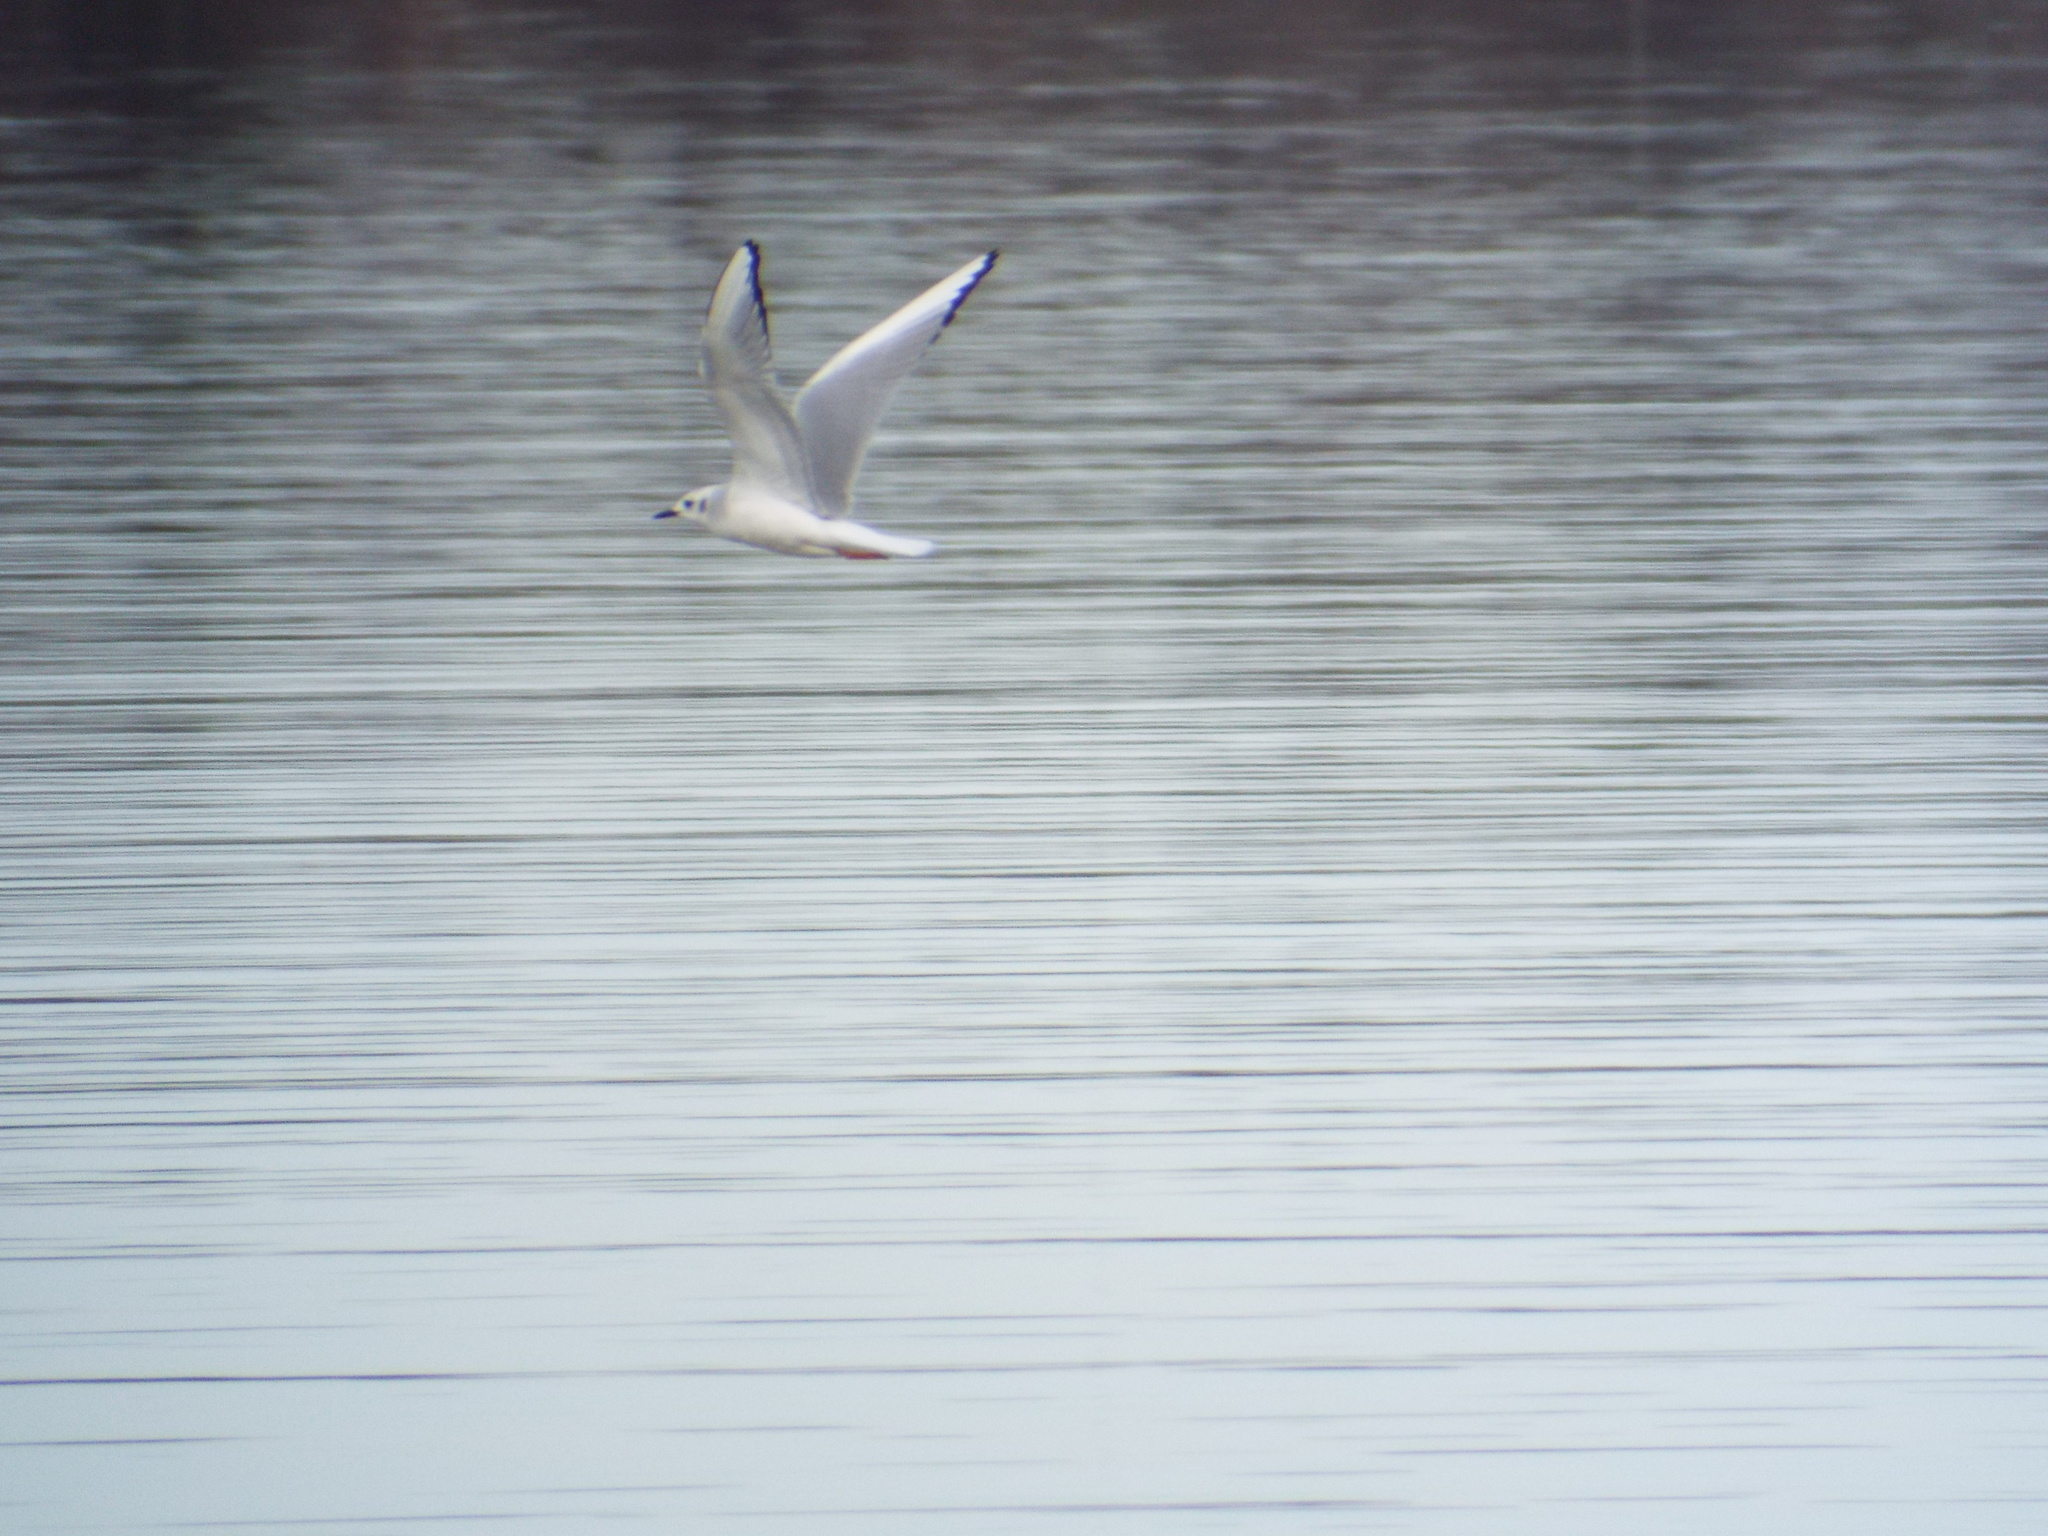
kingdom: Animalia
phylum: Chordata
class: Aves
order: Charadriiformes
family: Laridae
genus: Chroicocephalus
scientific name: Chroicocephalus philadelphia
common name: Bonaparte's gull
